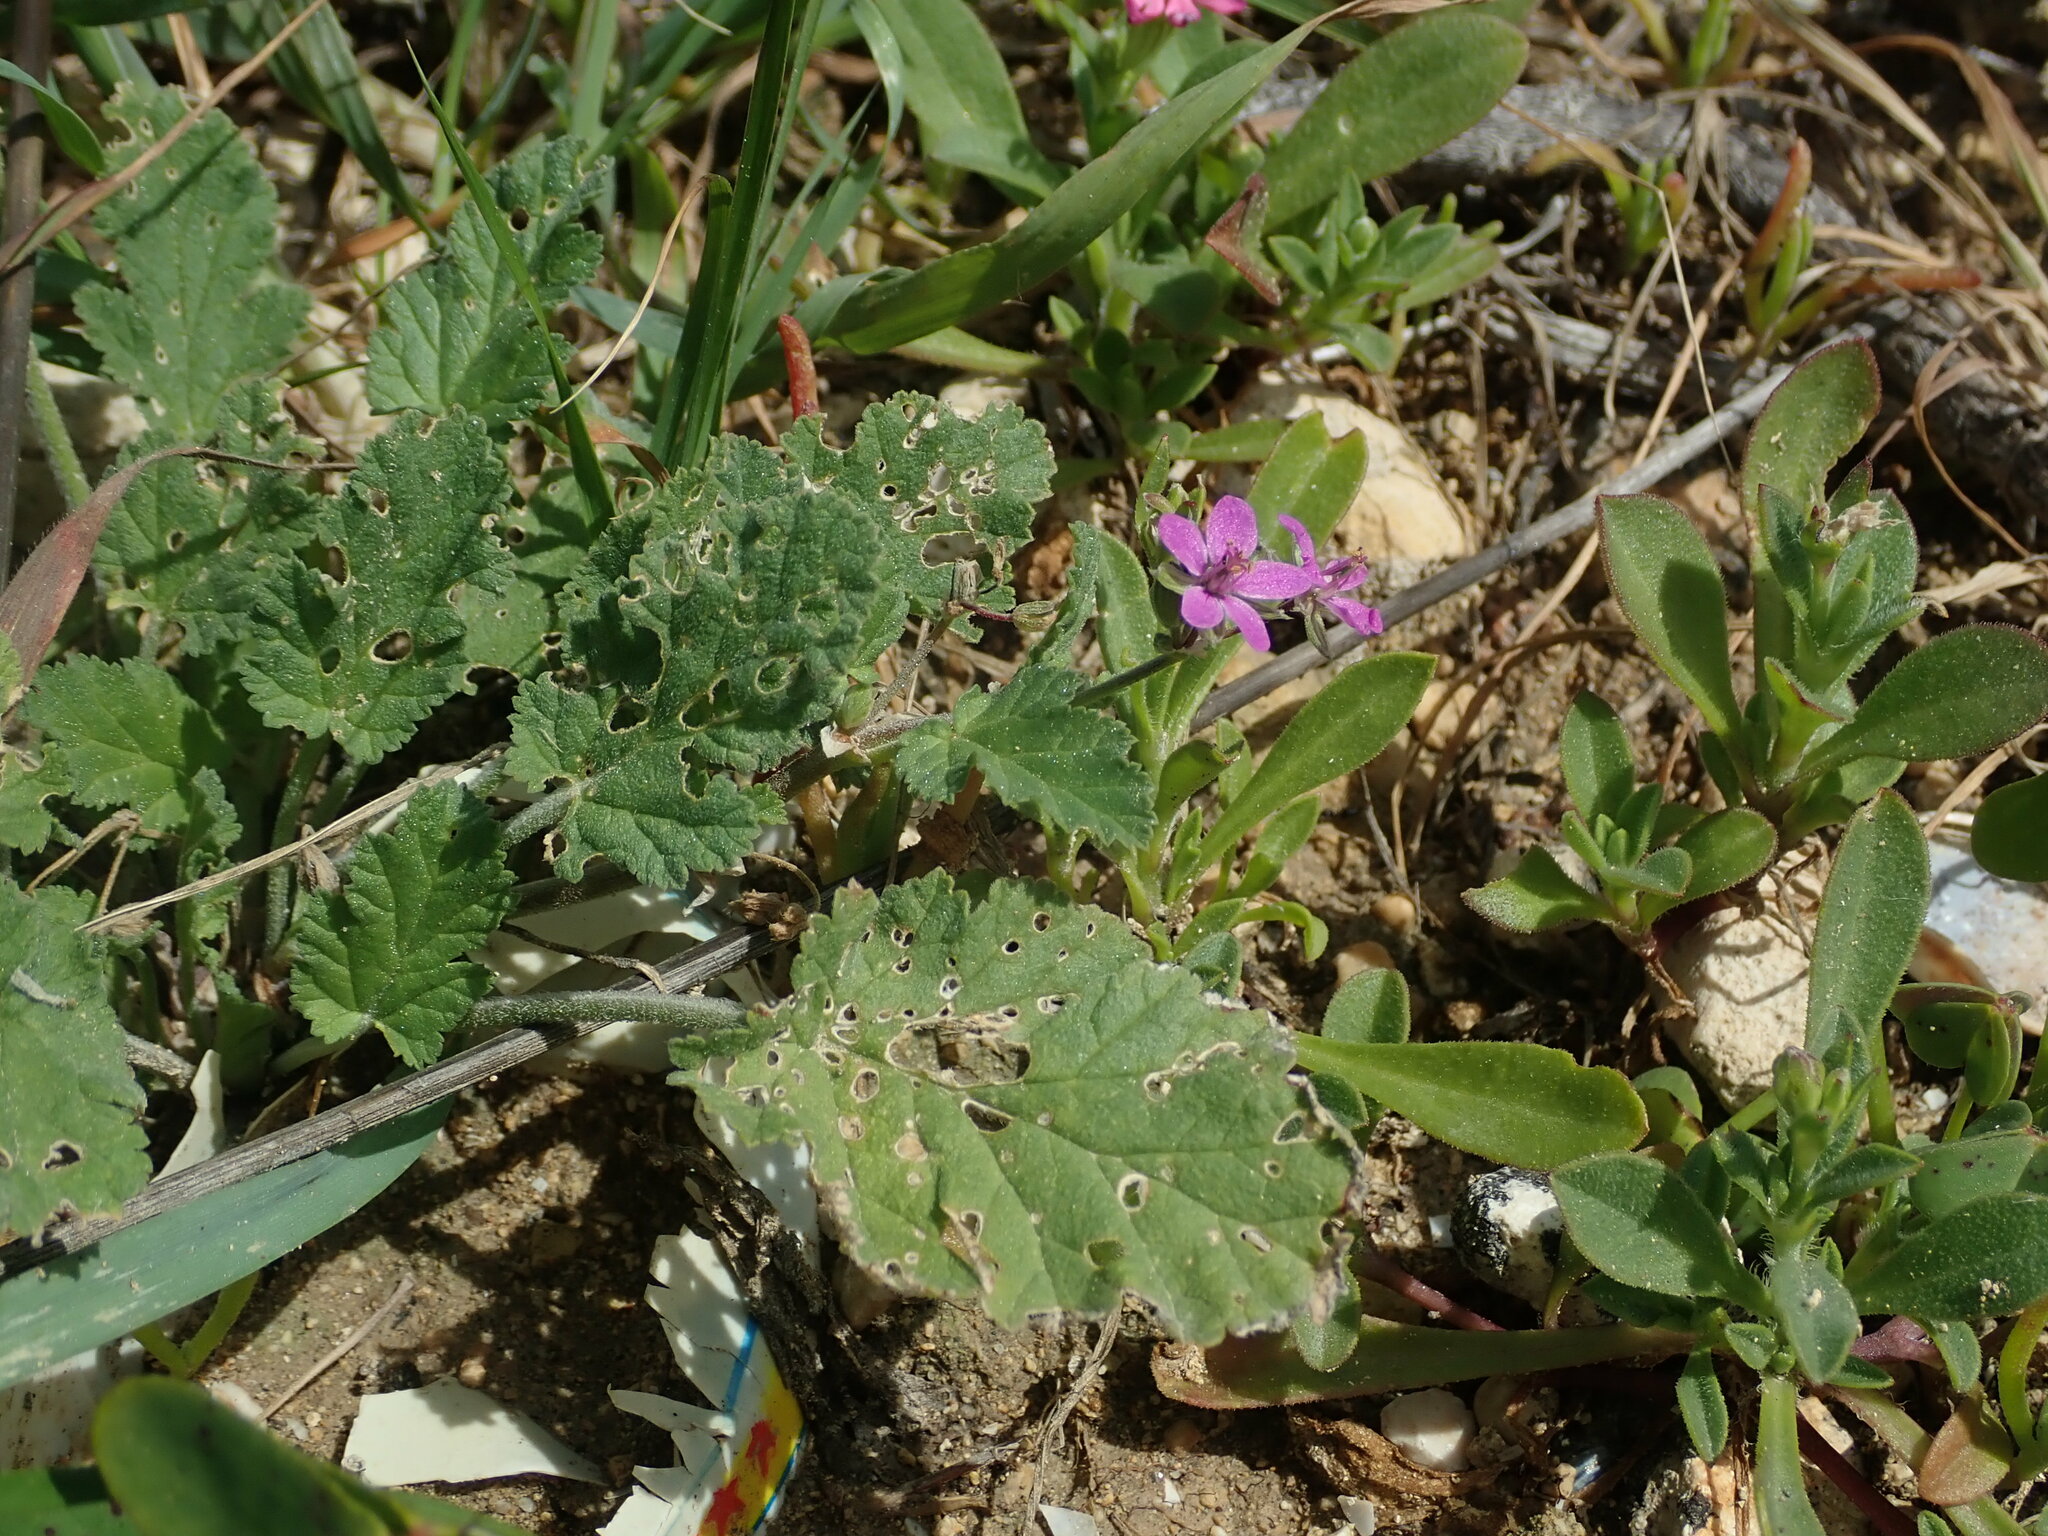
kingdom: Plantae
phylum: Tracheophyta
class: Magnoliopsida
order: Geraniales
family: Geraniaceae
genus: Erodium
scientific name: Erodium malacoides
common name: Soft stork's-bill
